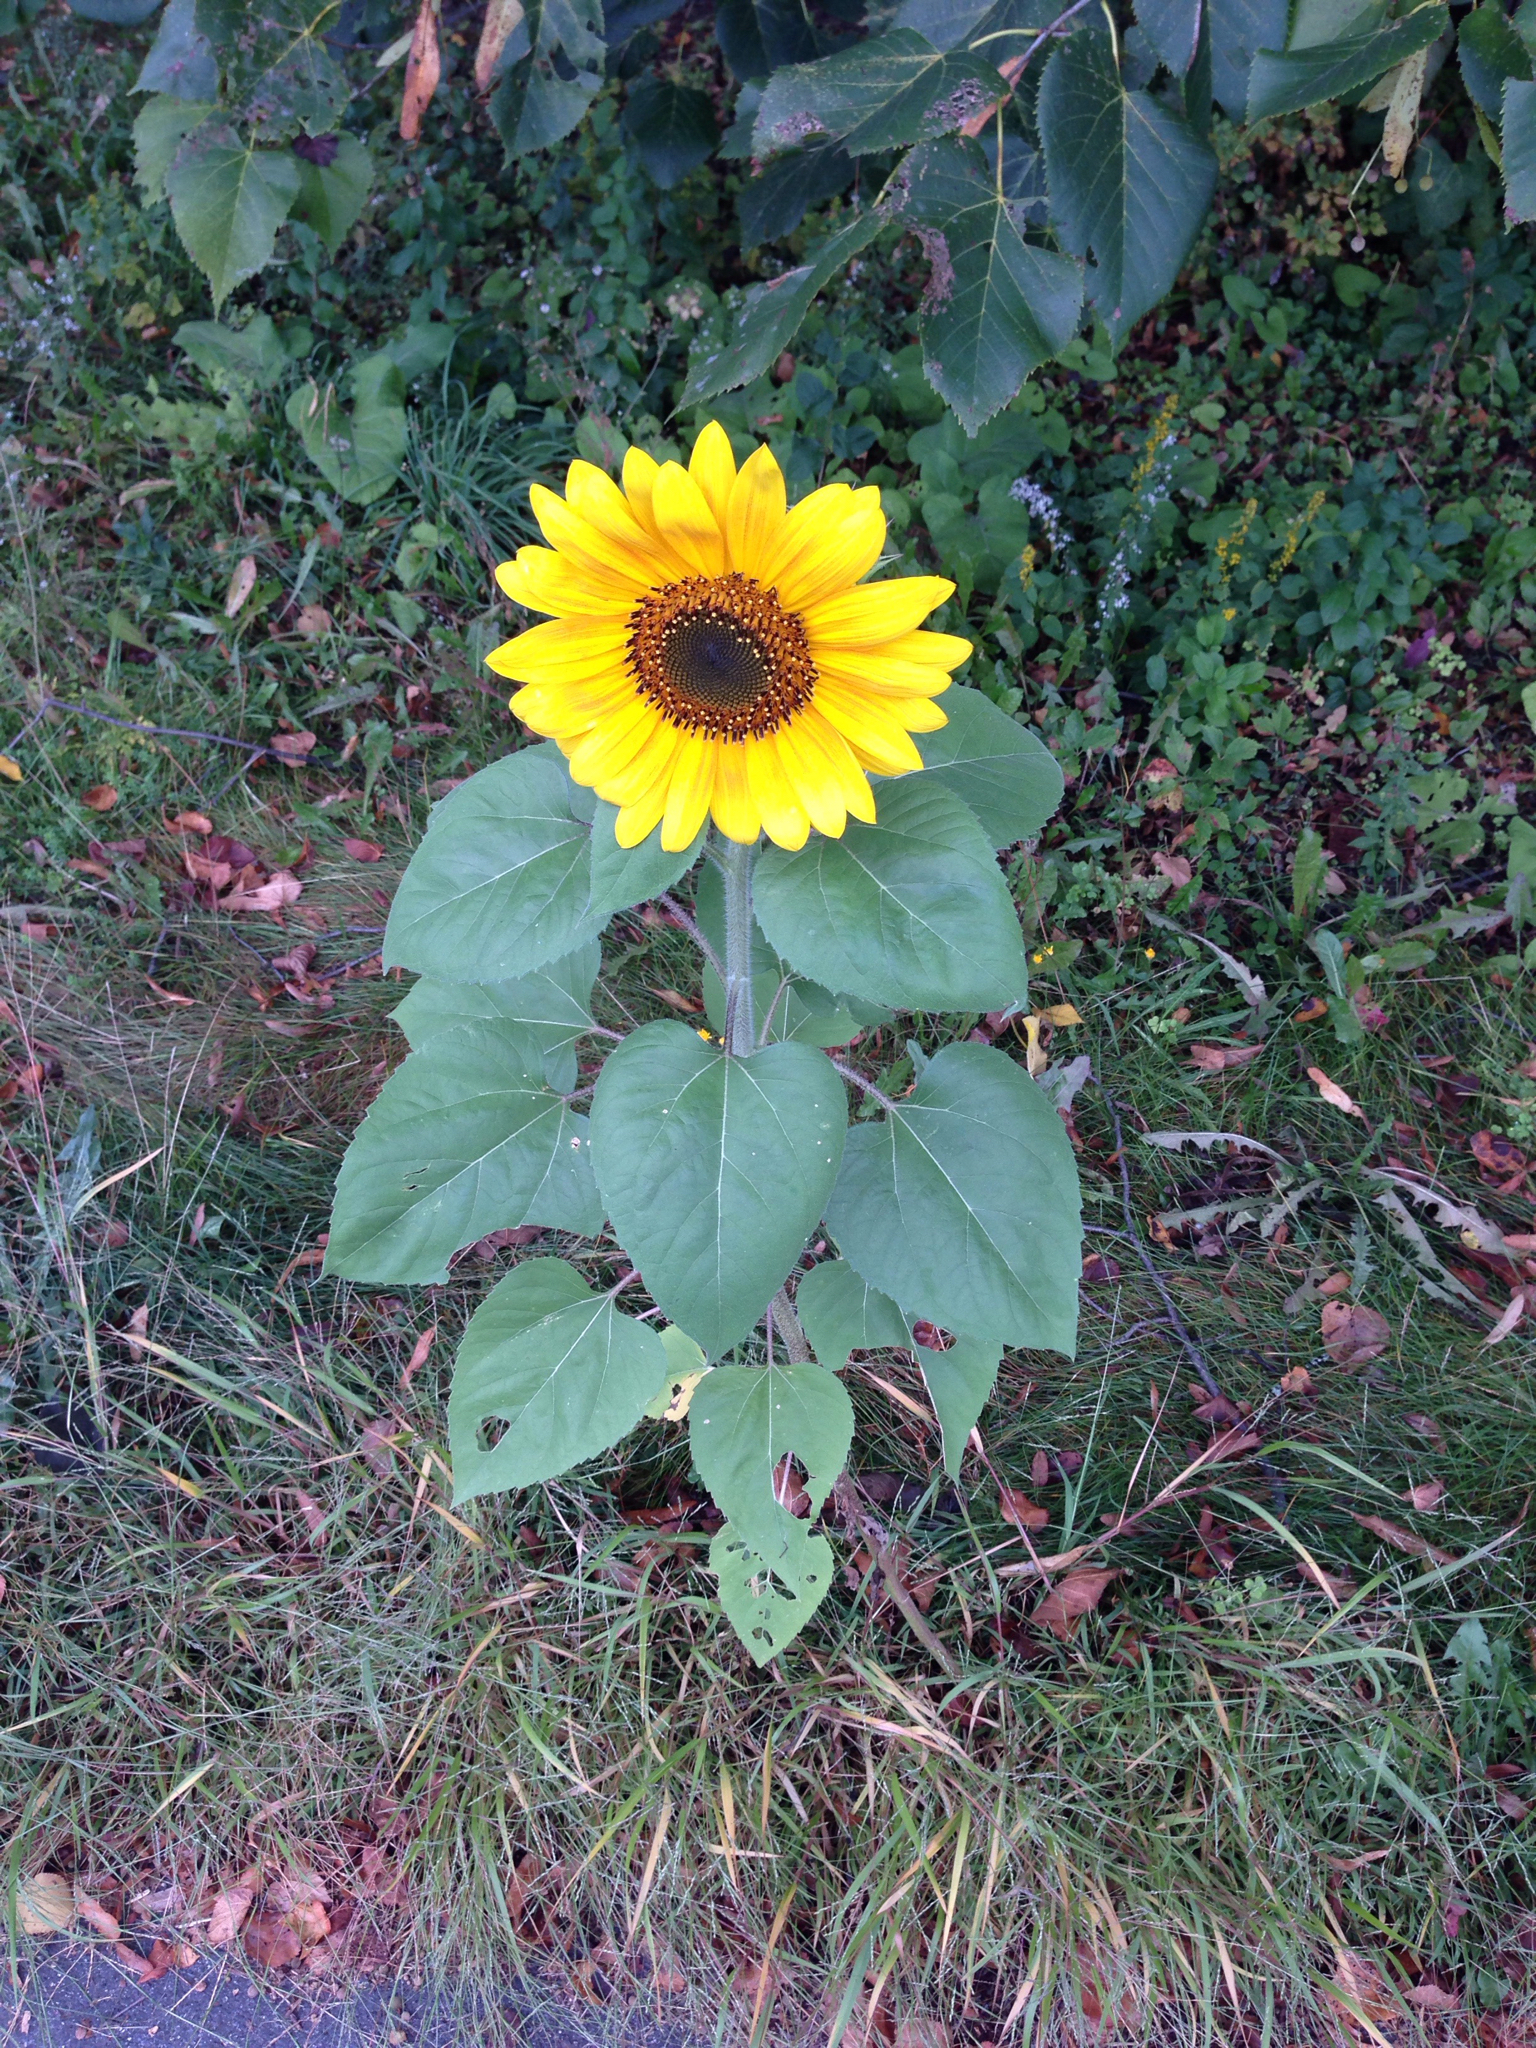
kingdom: Plantae
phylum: Tracheophyta
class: Magnoliopsida
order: Asterales
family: Asteraceae
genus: Helianthus
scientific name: Helianthus annuus
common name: Sunflower
